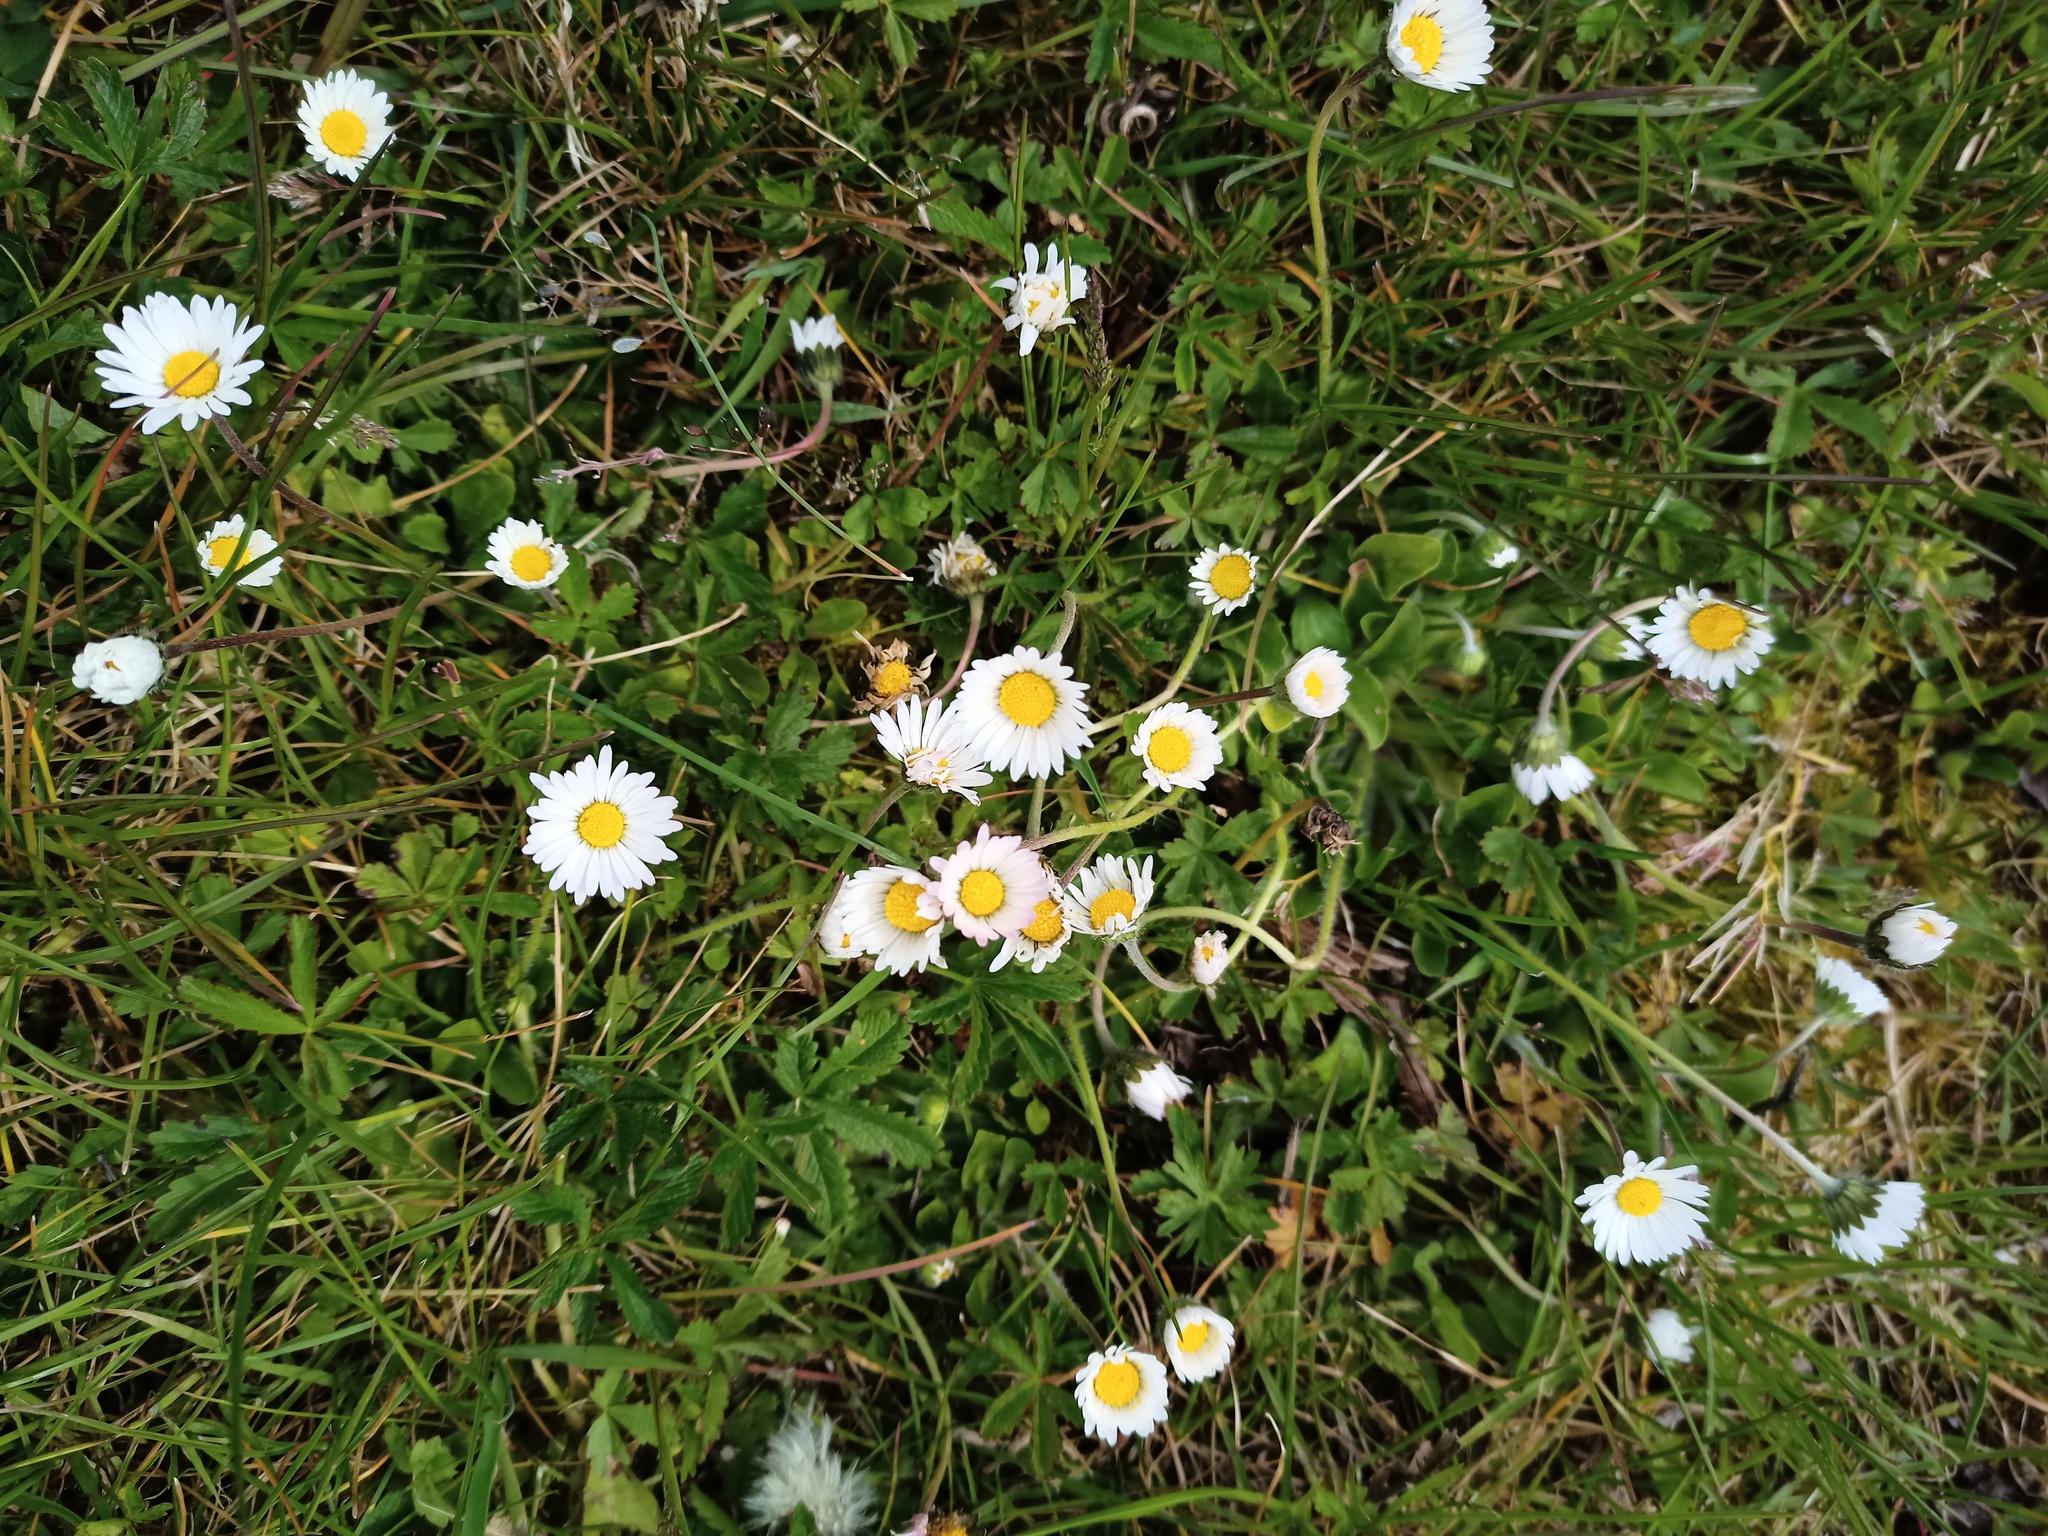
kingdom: Plantae
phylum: Tracheophyta
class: Magnoliopsida
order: Asterales
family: Asteraceae
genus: Bellis
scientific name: Bellis perennis
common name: Lawndaisy
